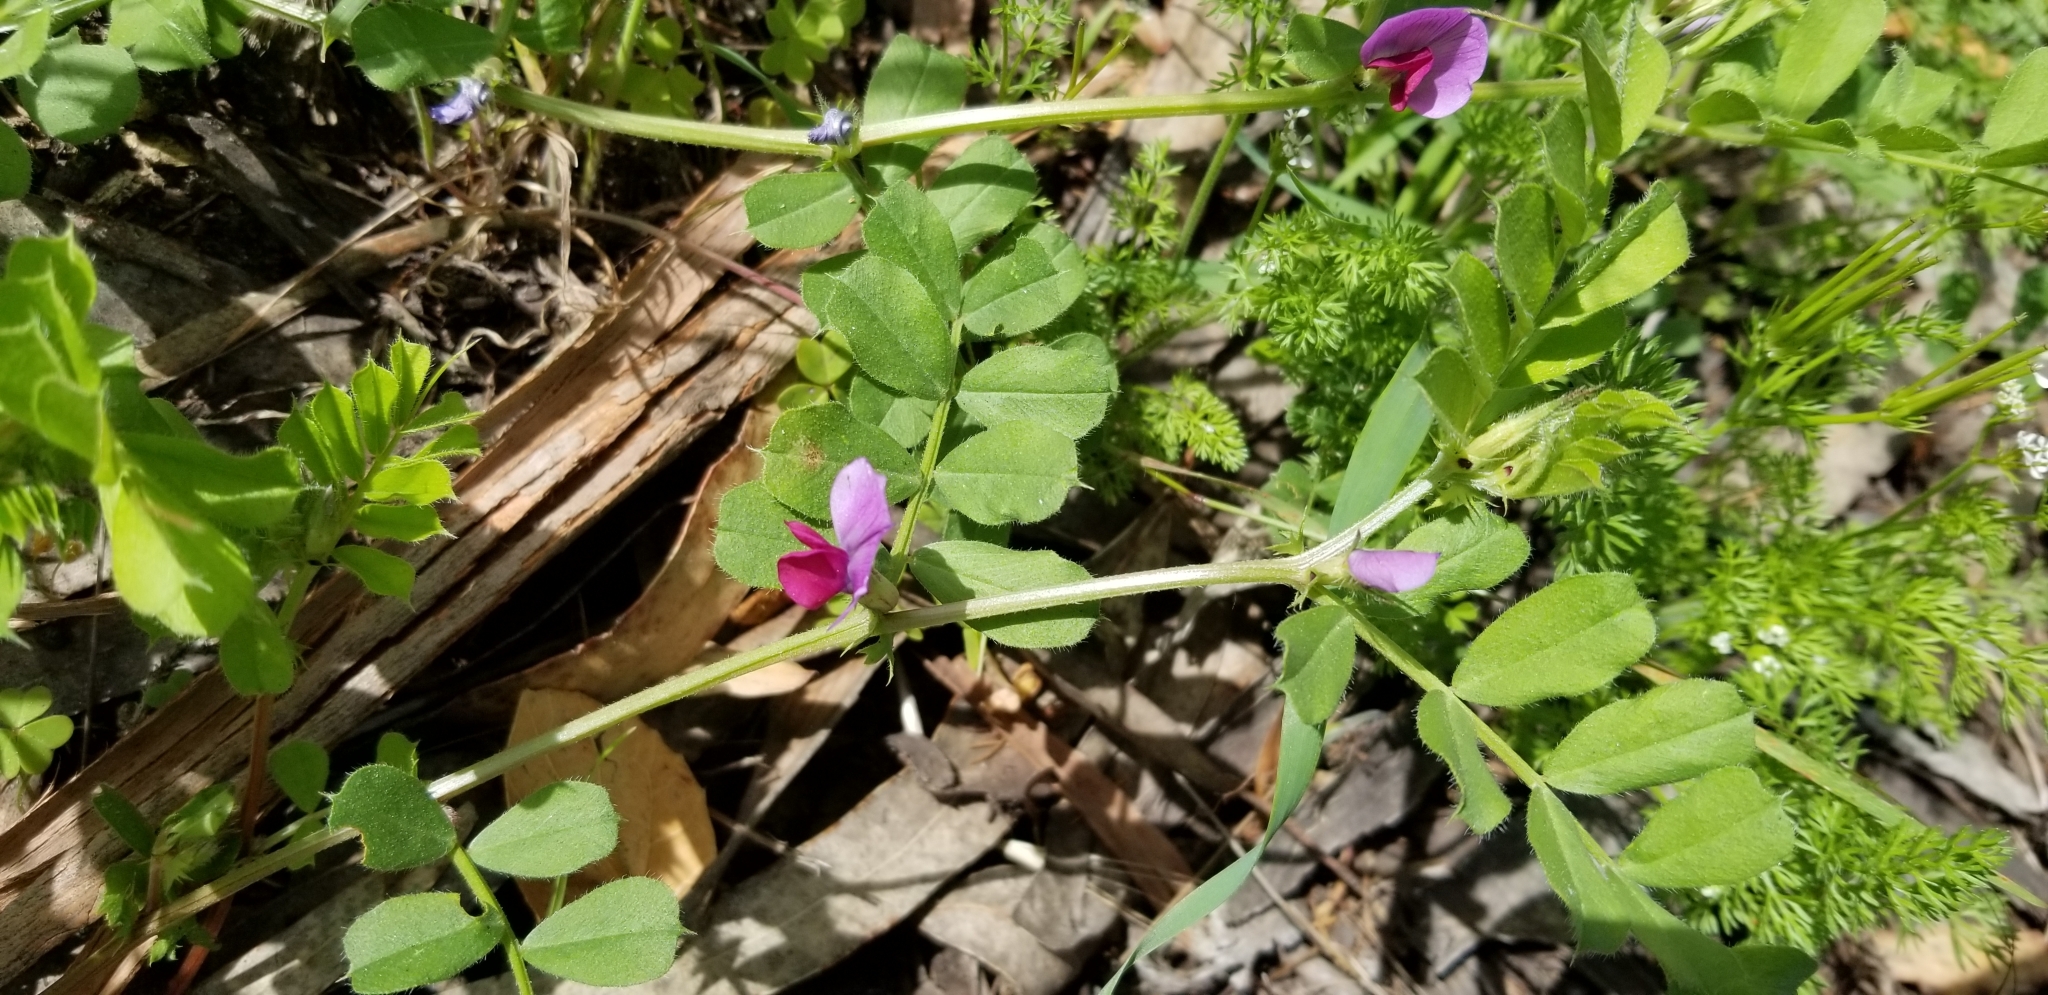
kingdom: Plantae
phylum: Tracheophyta
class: Magnoliopsida
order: Fabales
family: Fabaceae
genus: Vicia
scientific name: Vicia sativa
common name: Garden vetch
